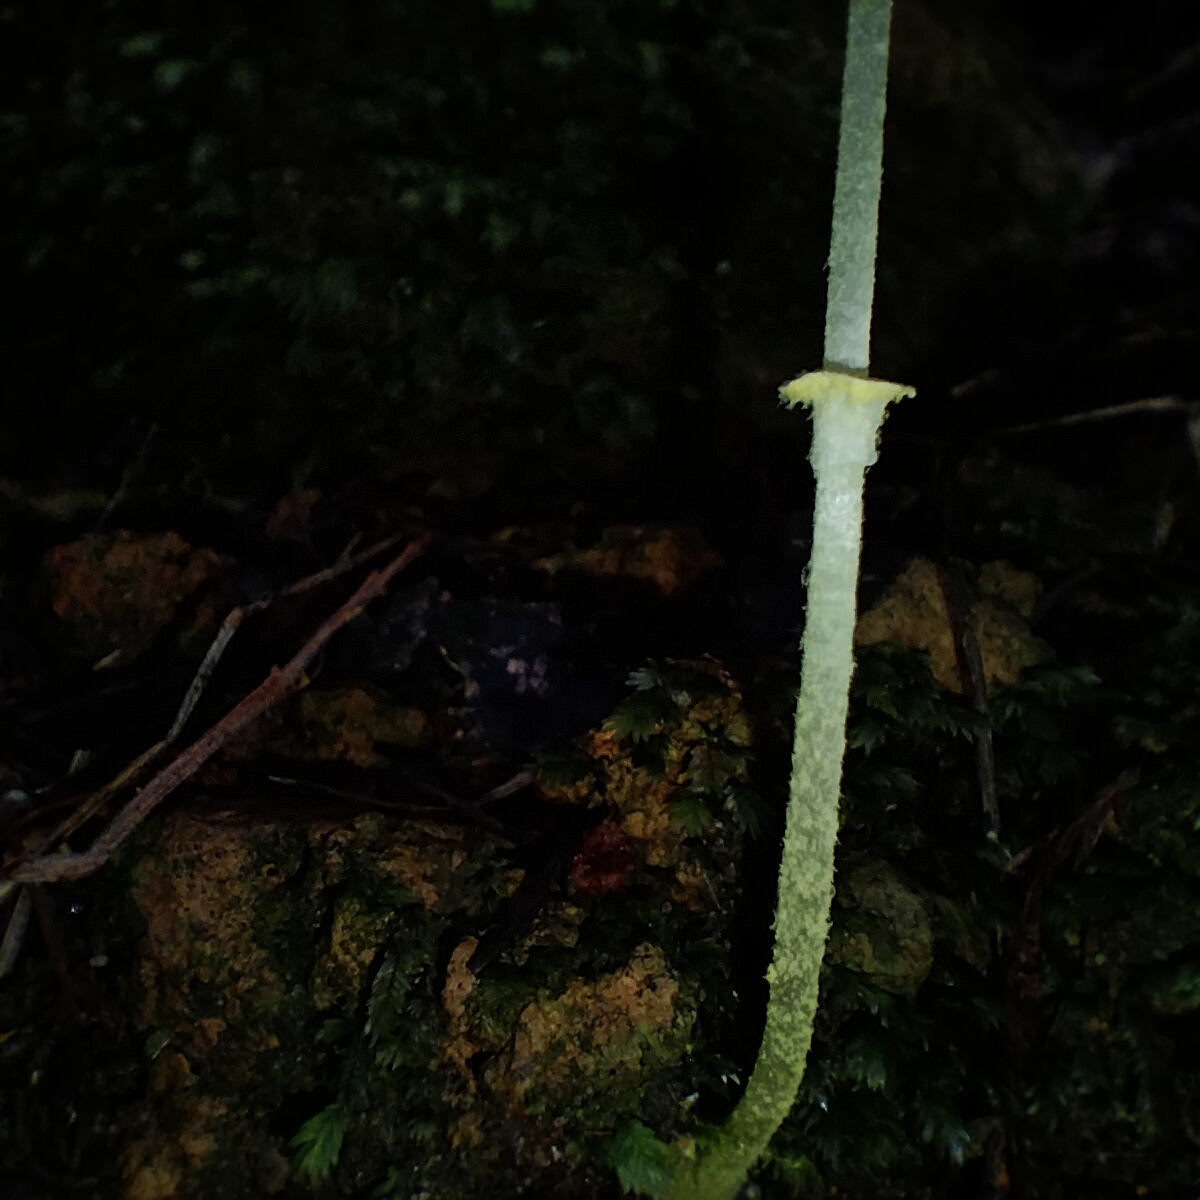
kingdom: Fungi
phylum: Basidiomycota
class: Agaricomycetes
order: Agaricales
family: Agaricaceae
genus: Leucocoprinus
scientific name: Leucocoprinus fragilissimus
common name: Fragile dapperling
